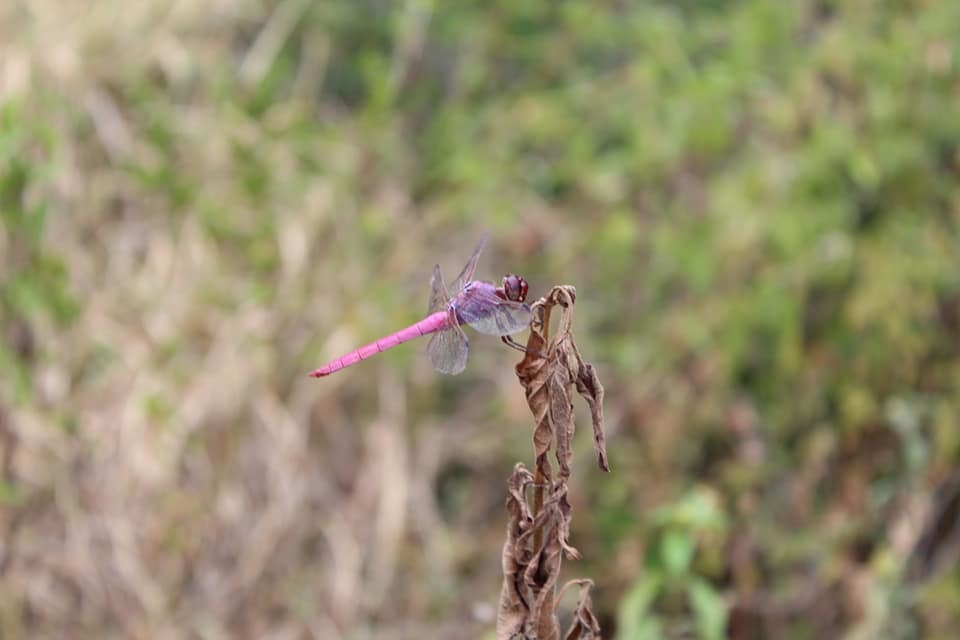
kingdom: Animalia
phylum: Arthropoda
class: Insecta
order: Odonata
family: Libellulidae
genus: Orthemis
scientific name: Orthemis ferruginea
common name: Roseate skimmer
